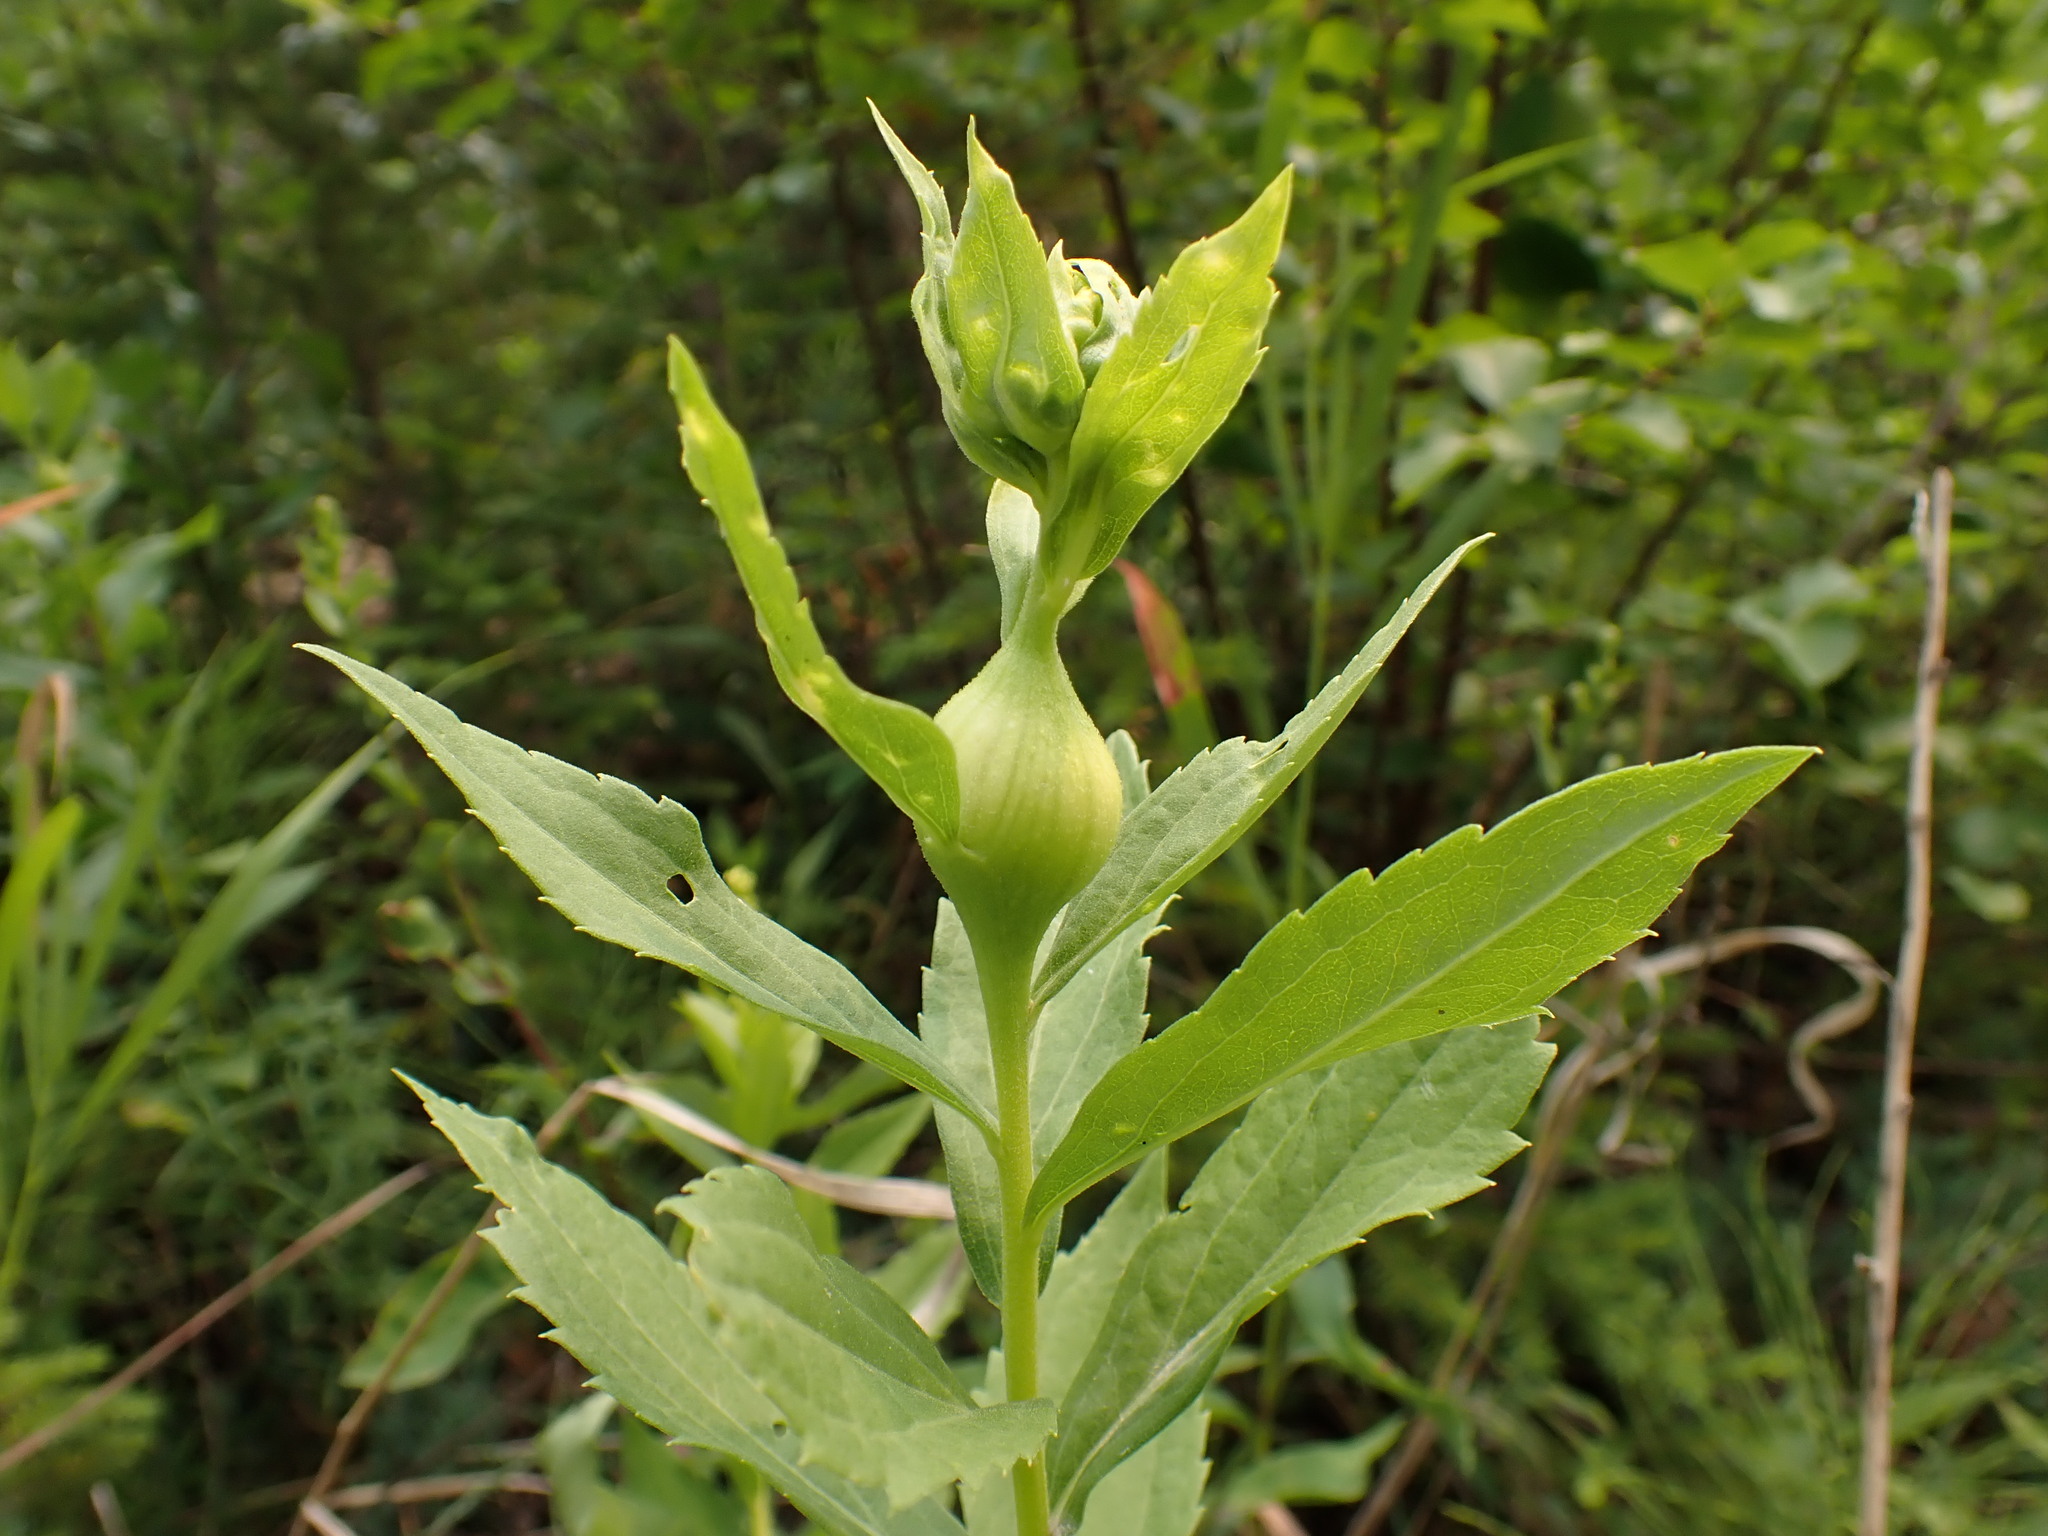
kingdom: Animalia
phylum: Arthropoda
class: Insecta
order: Diptera
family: Tephritidae
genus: Eurosta
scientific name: Eurosta solidaginis
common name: Goldenrod gall fly
